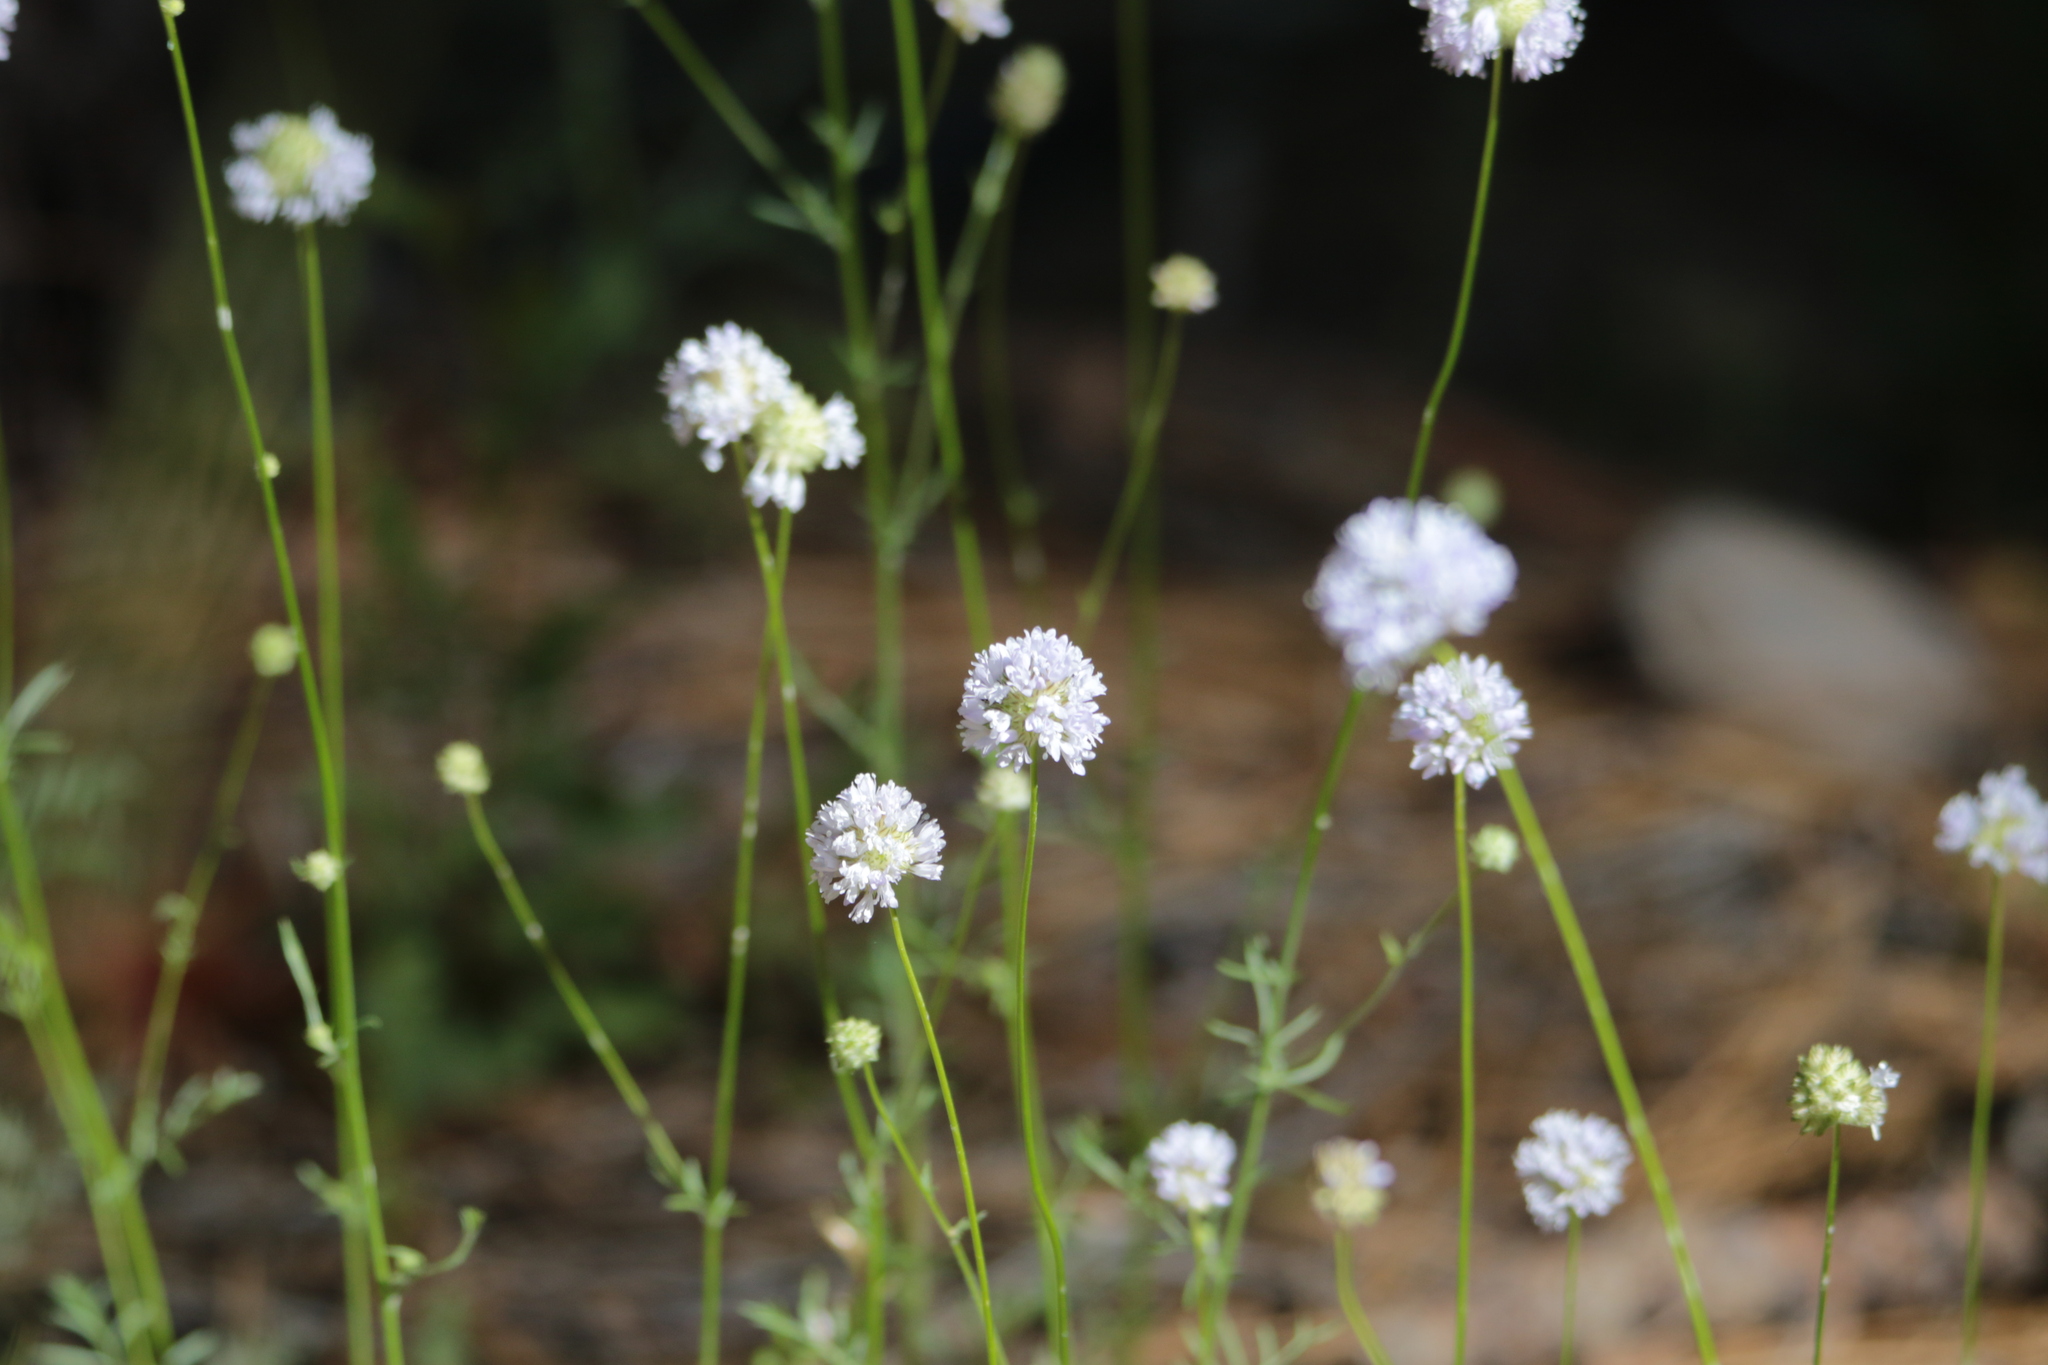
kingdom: Plantae
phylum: Tracheophyta
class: Magnoliopsida
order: Ericales
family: Polemoniaceae
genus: Gilia
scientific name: Gilia capitata
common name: Bluehead gilia
